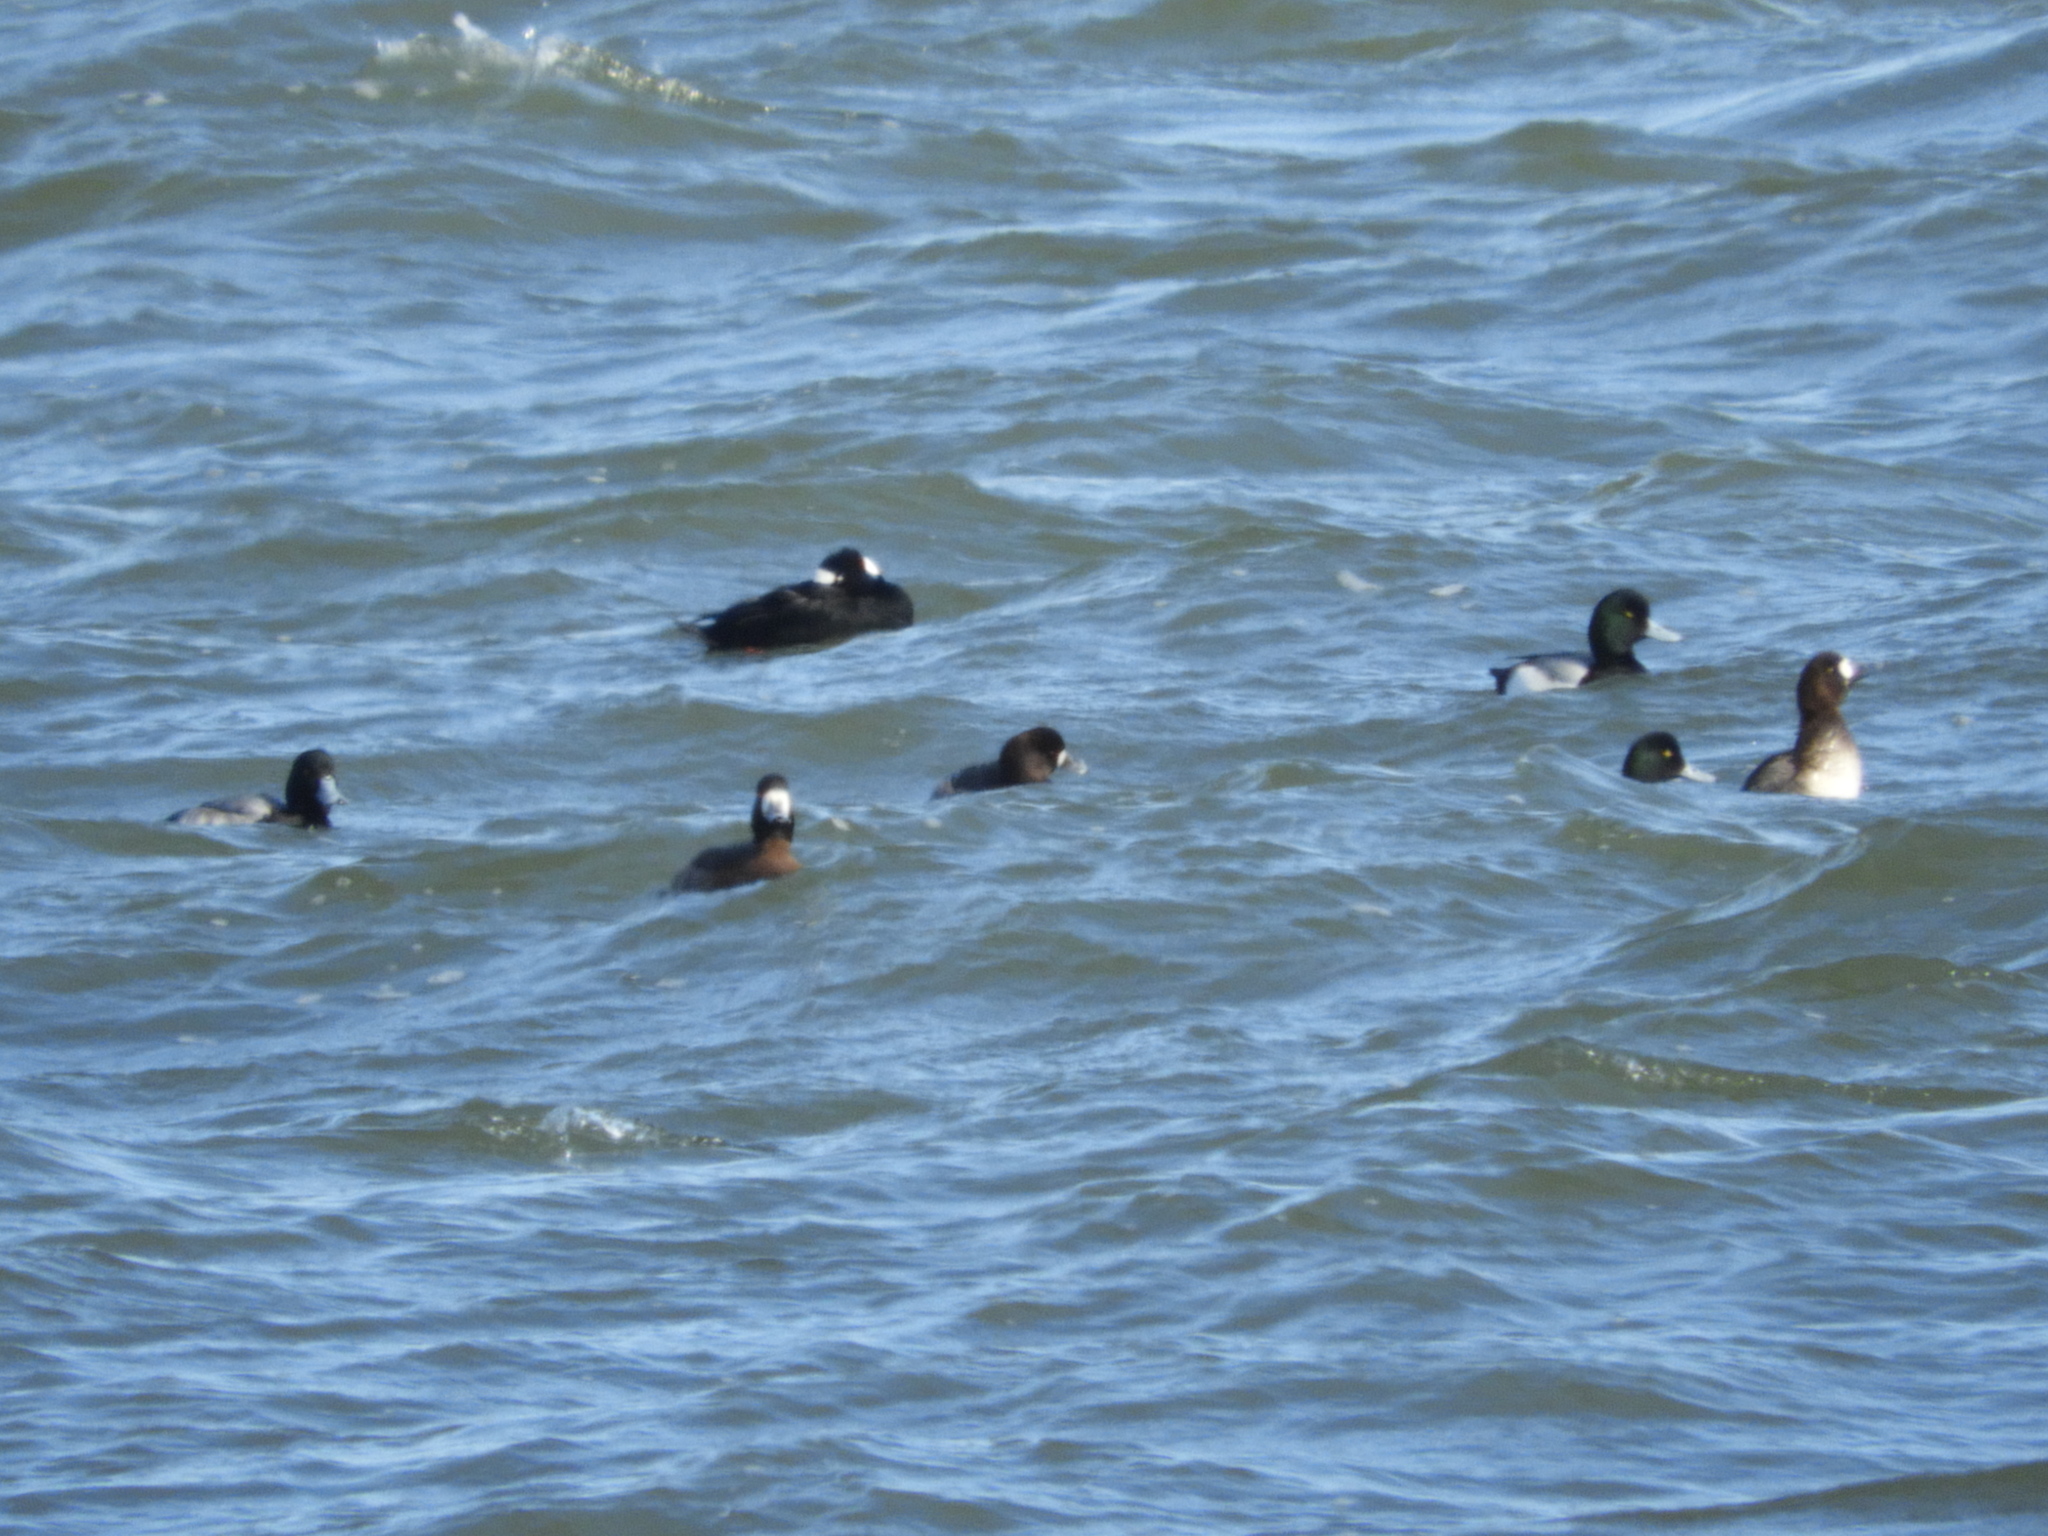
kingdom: Animalia
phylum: Chordata
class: Aves
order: Anseriformes
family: Anatidae
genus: Aythya
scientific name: Aythya marila
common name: Greater scaup
